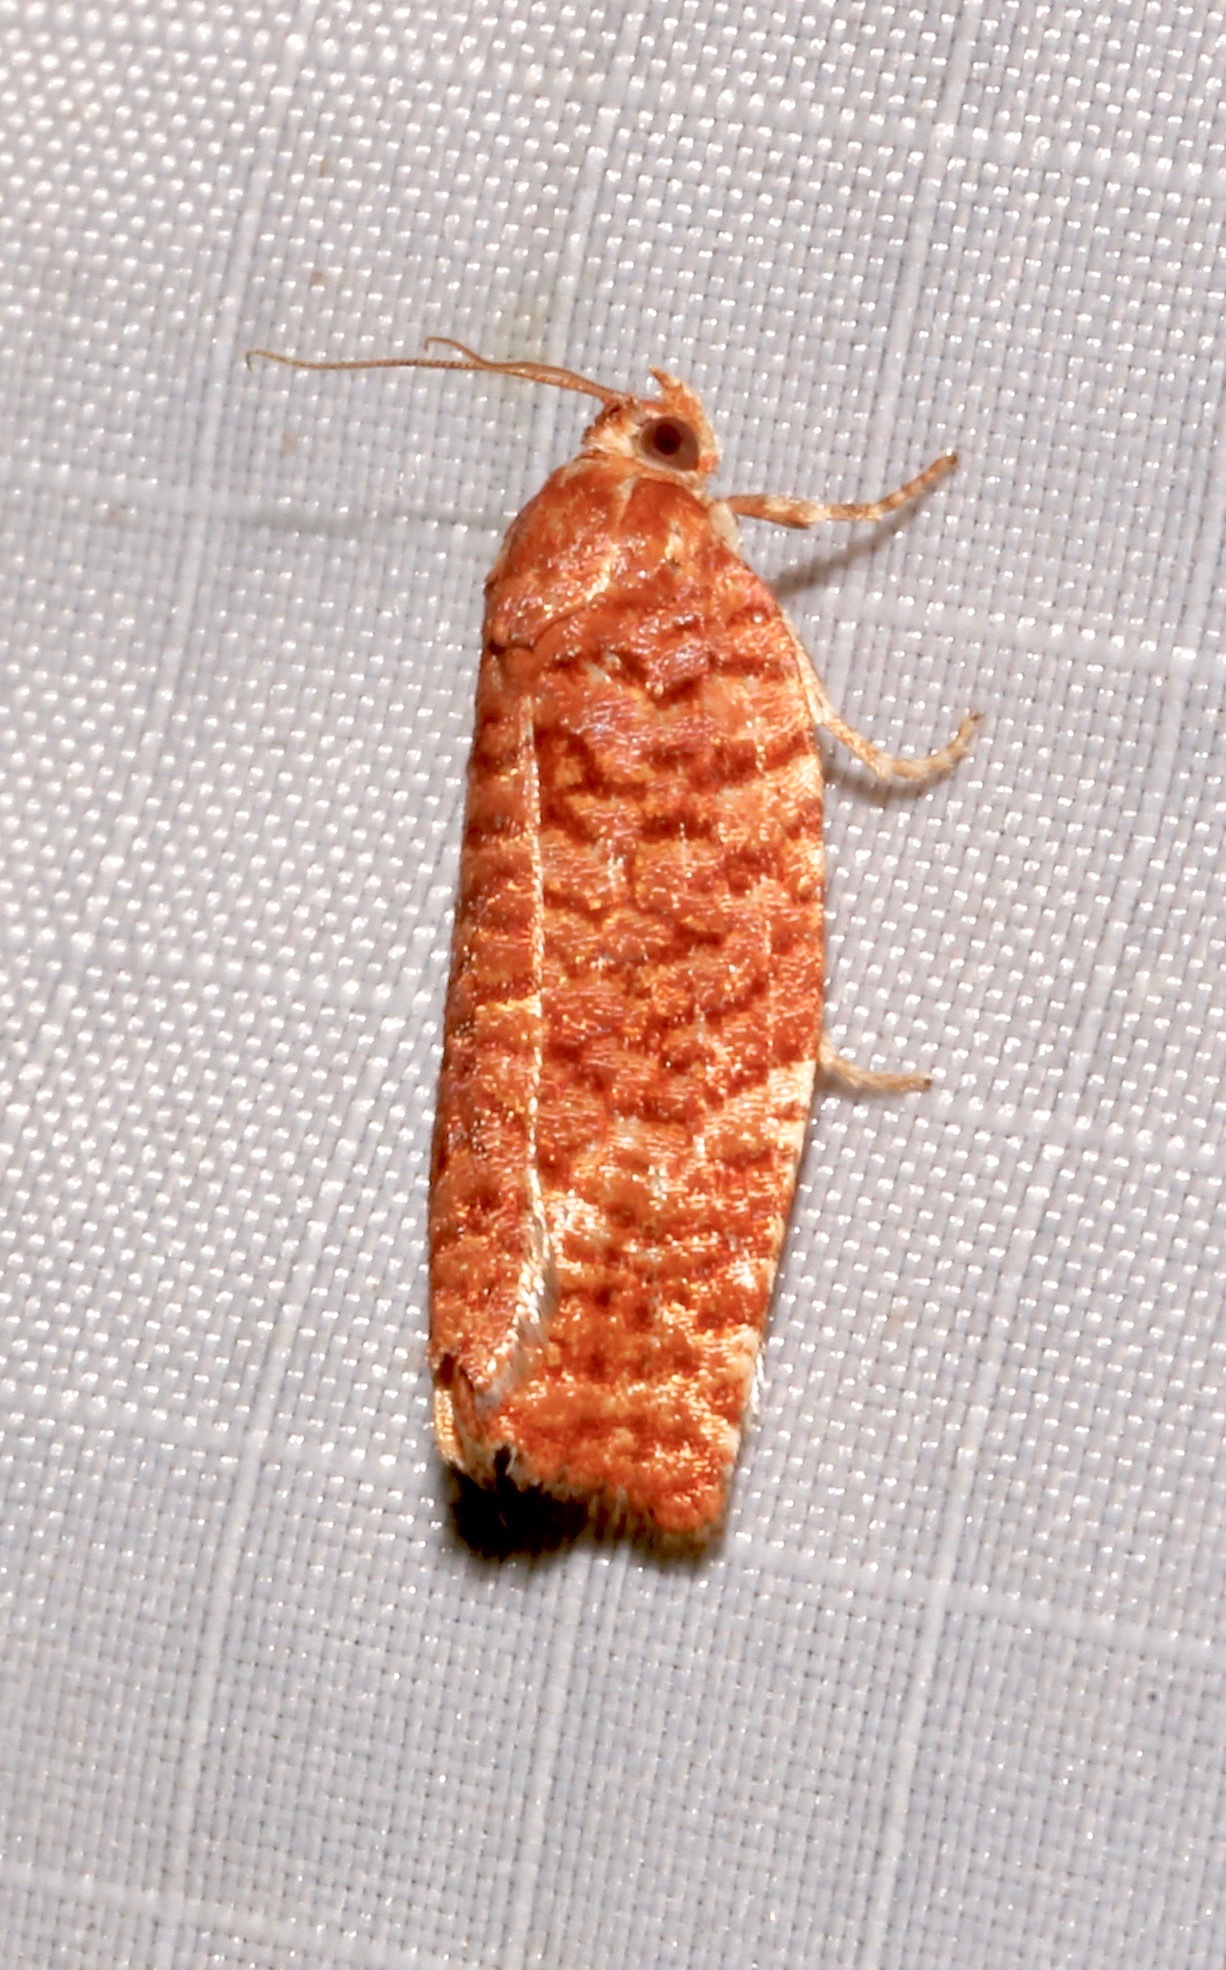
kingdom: Animalia
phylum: Arthropoda
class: Insecta
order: Lepidoptera
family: Tortricidae
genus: Choristoneura
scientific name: Choristoneura pinus
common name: Jack pine budworm
